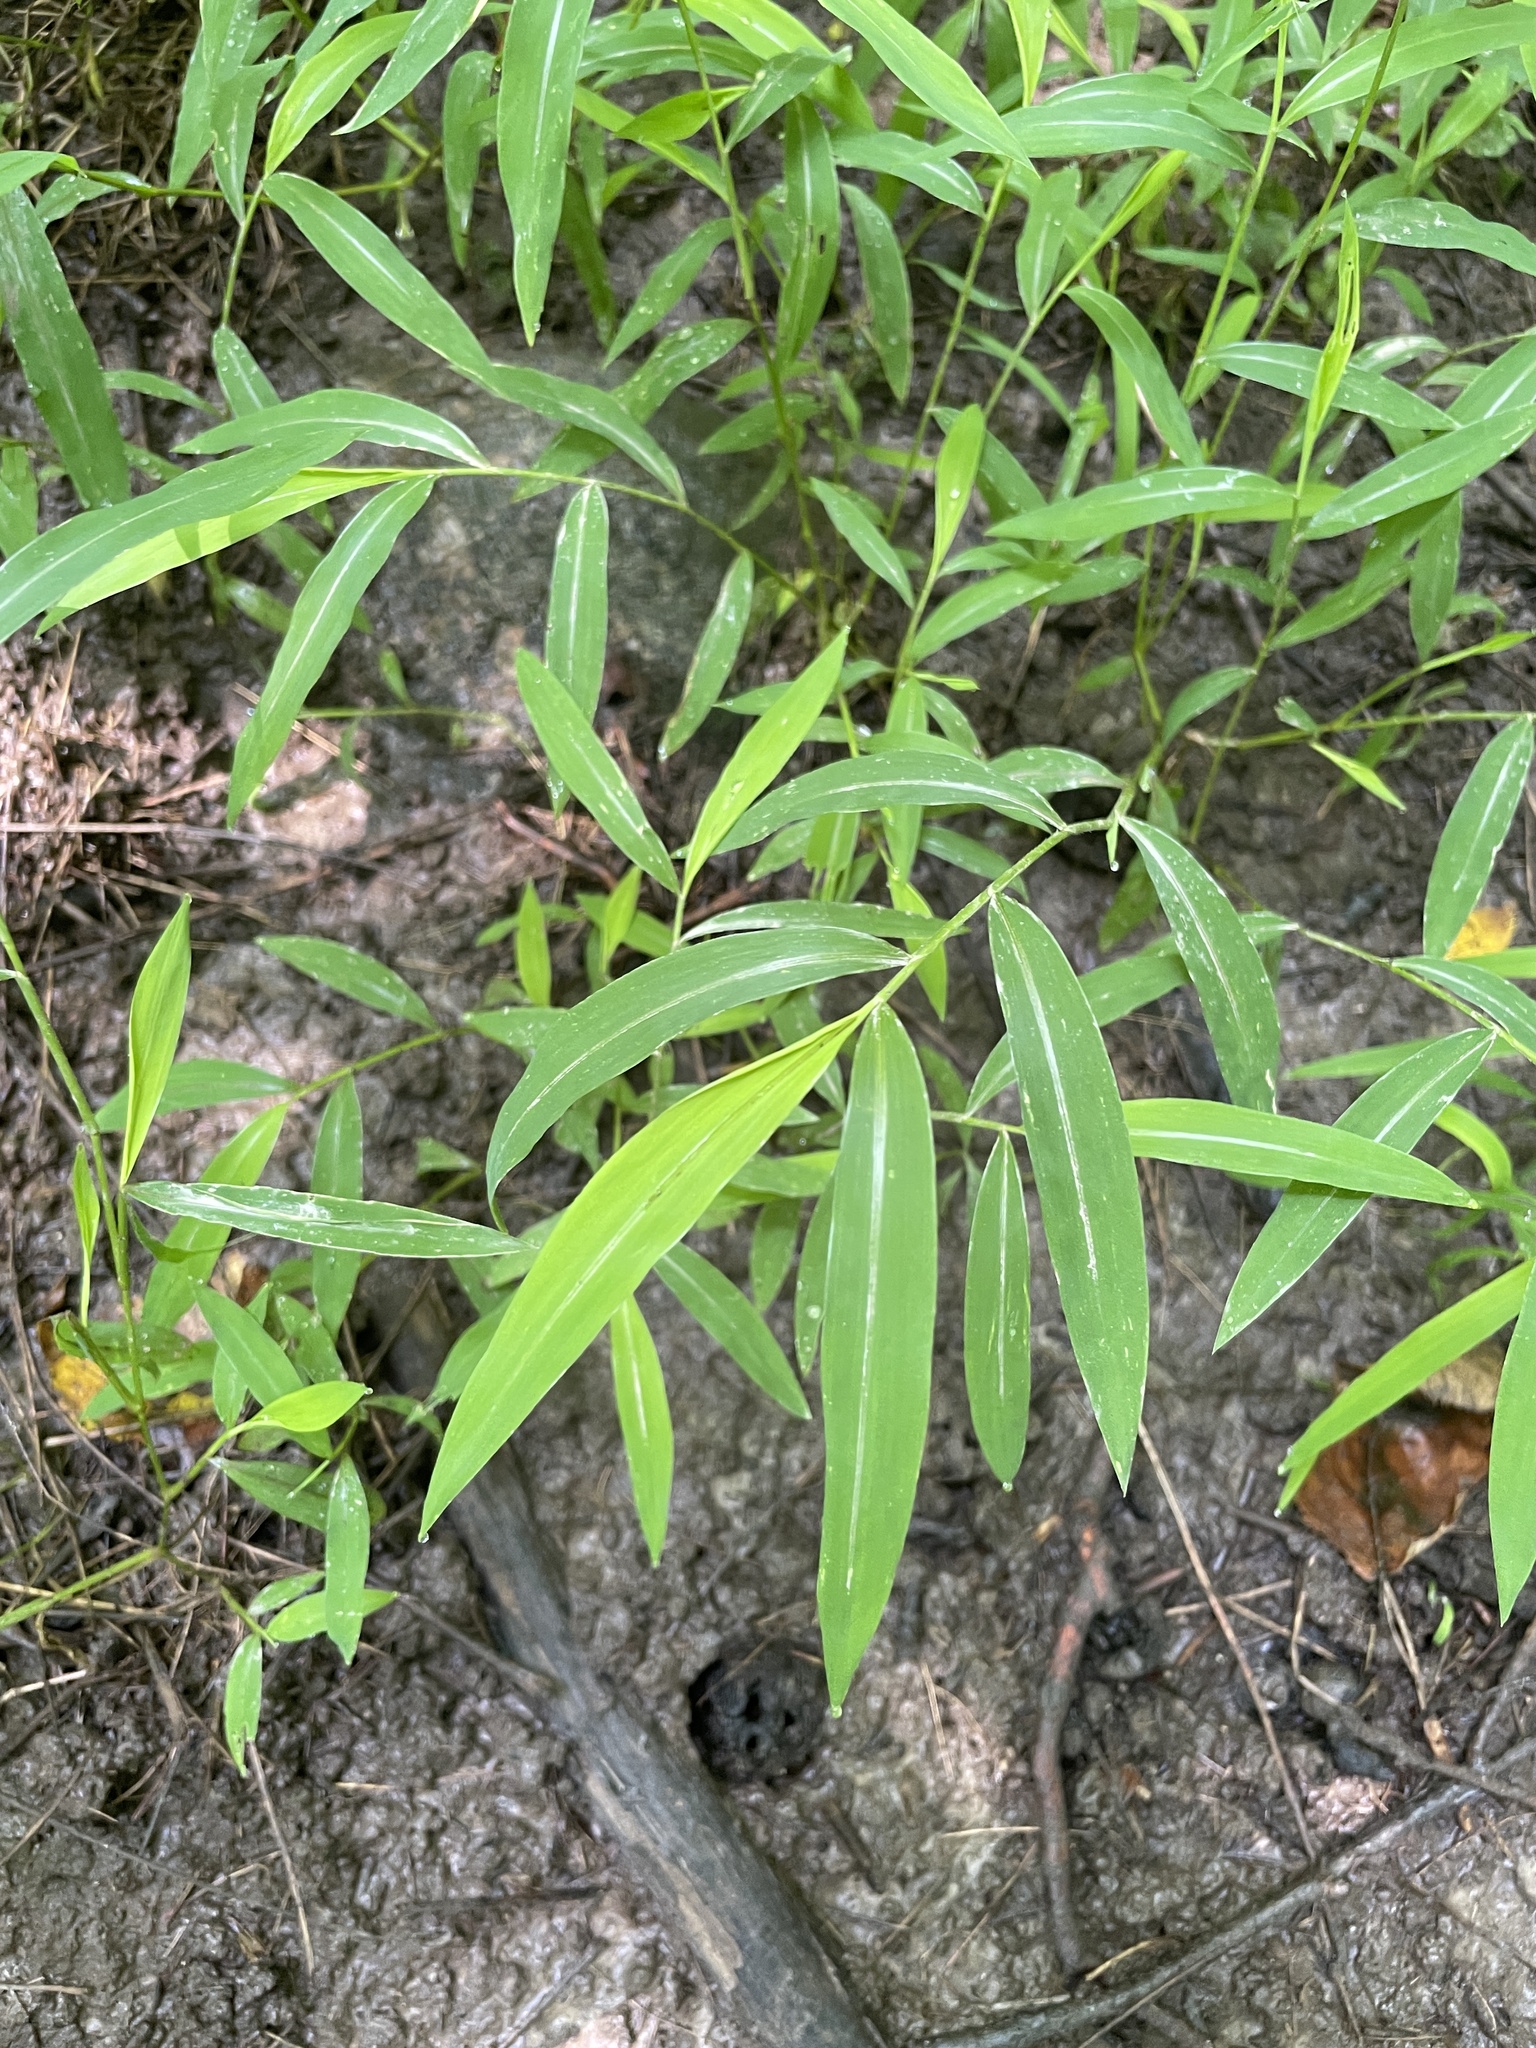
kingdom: Plantae
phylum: Tracheophyta
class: Liliopsida
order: Poales
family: Poaceae
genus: Microstegium
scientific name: Microstegium vimineum
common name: Japanese stiltgrass
